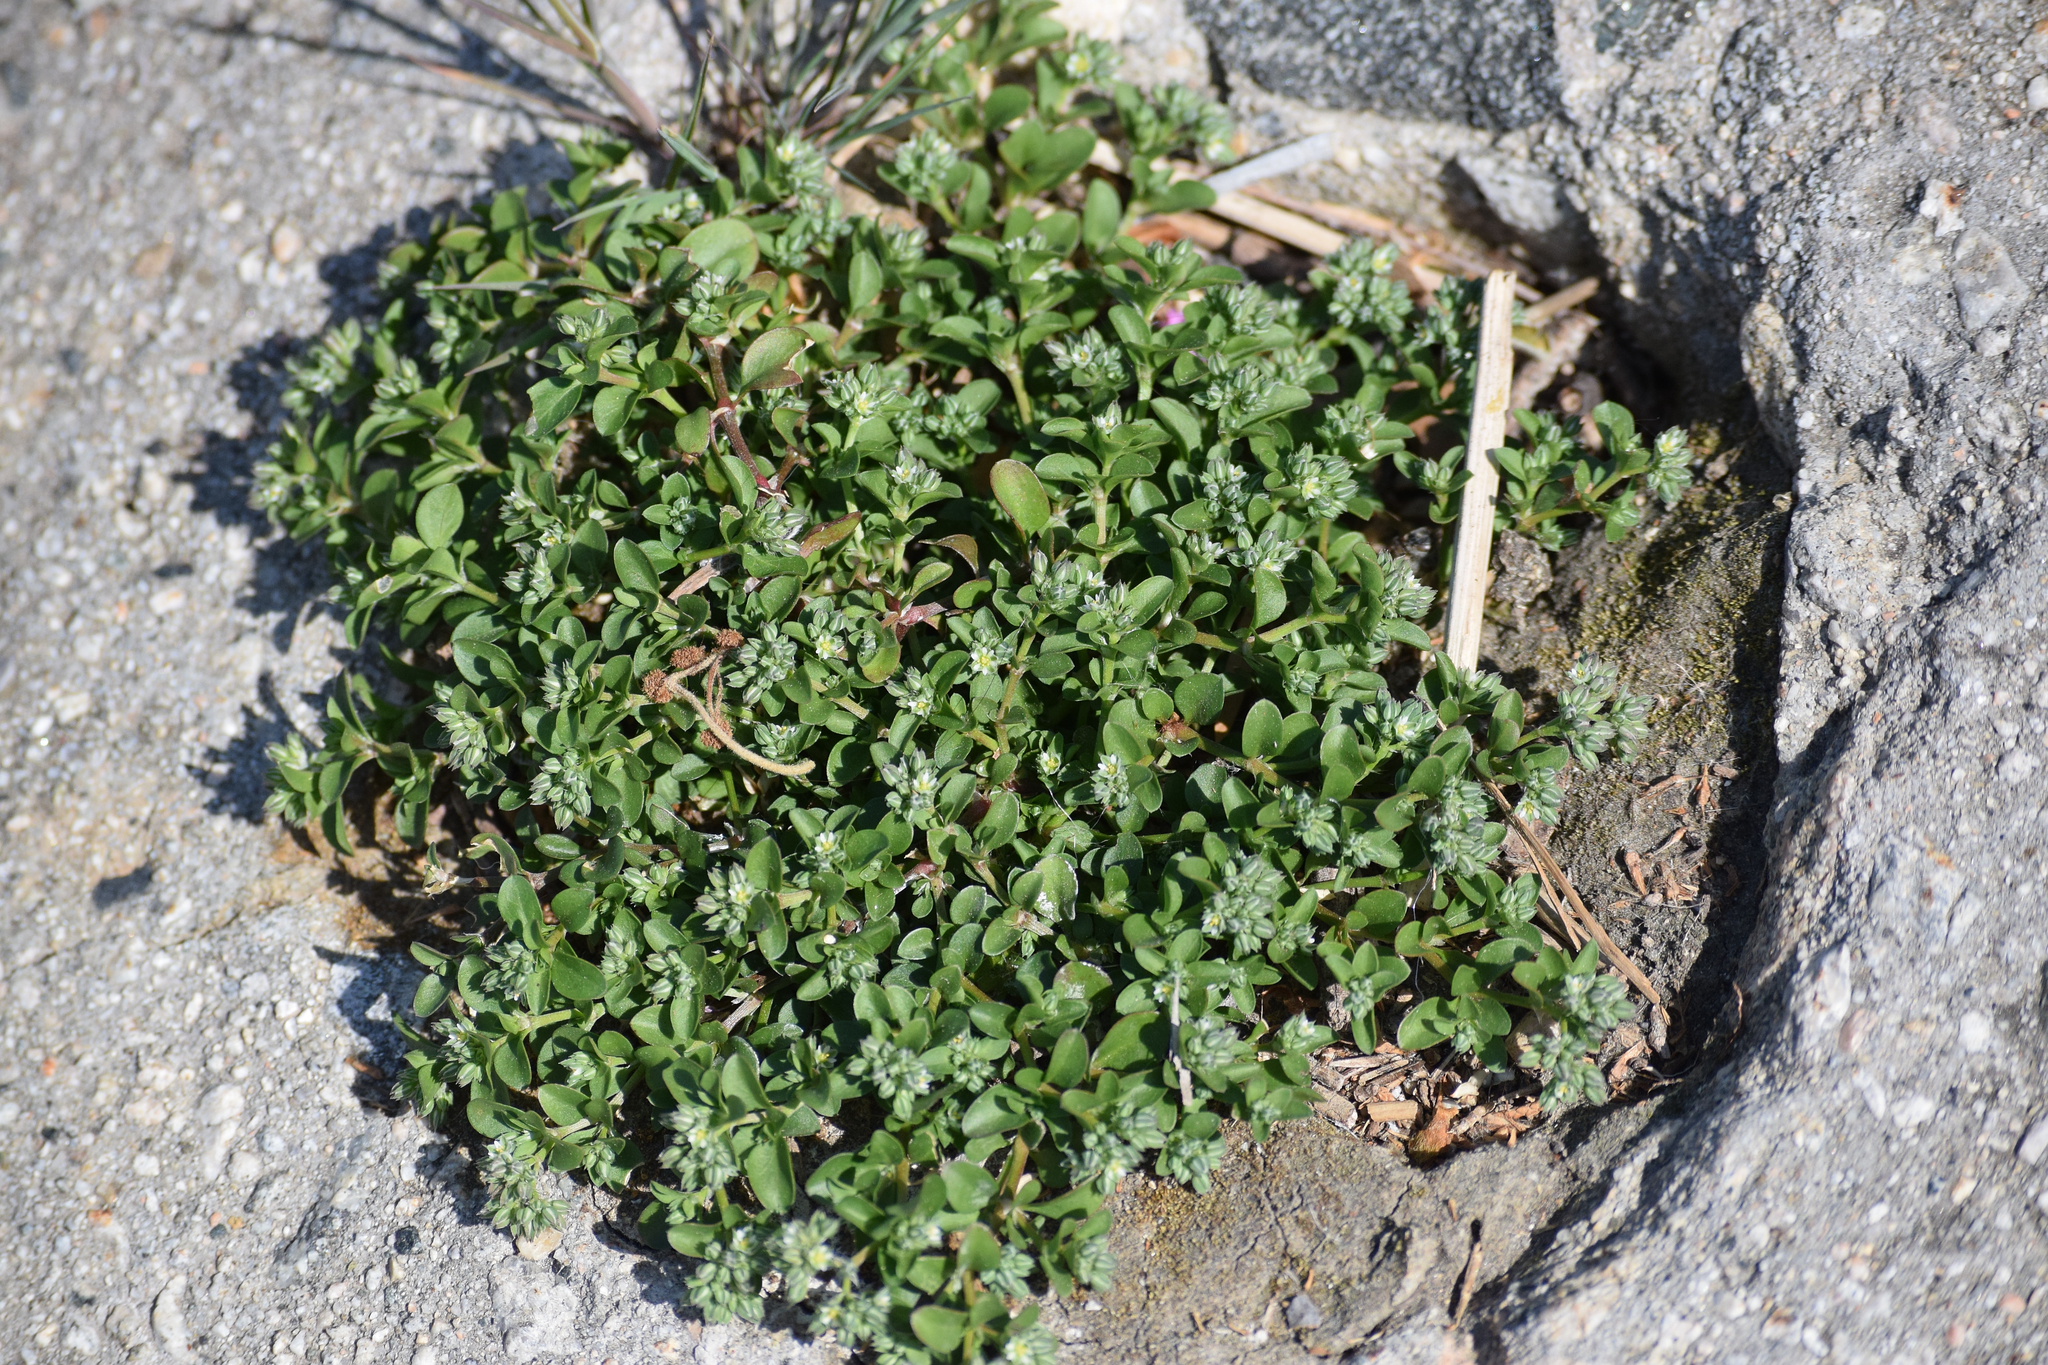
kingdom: Plantae
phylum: Tracheophyta
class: Magnoliopsida
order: Caryophyllales
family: Caryophyllaceae
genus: Polycarpon
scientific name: Polycarpon tetraphyllum
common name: Four-leaved all-seed
